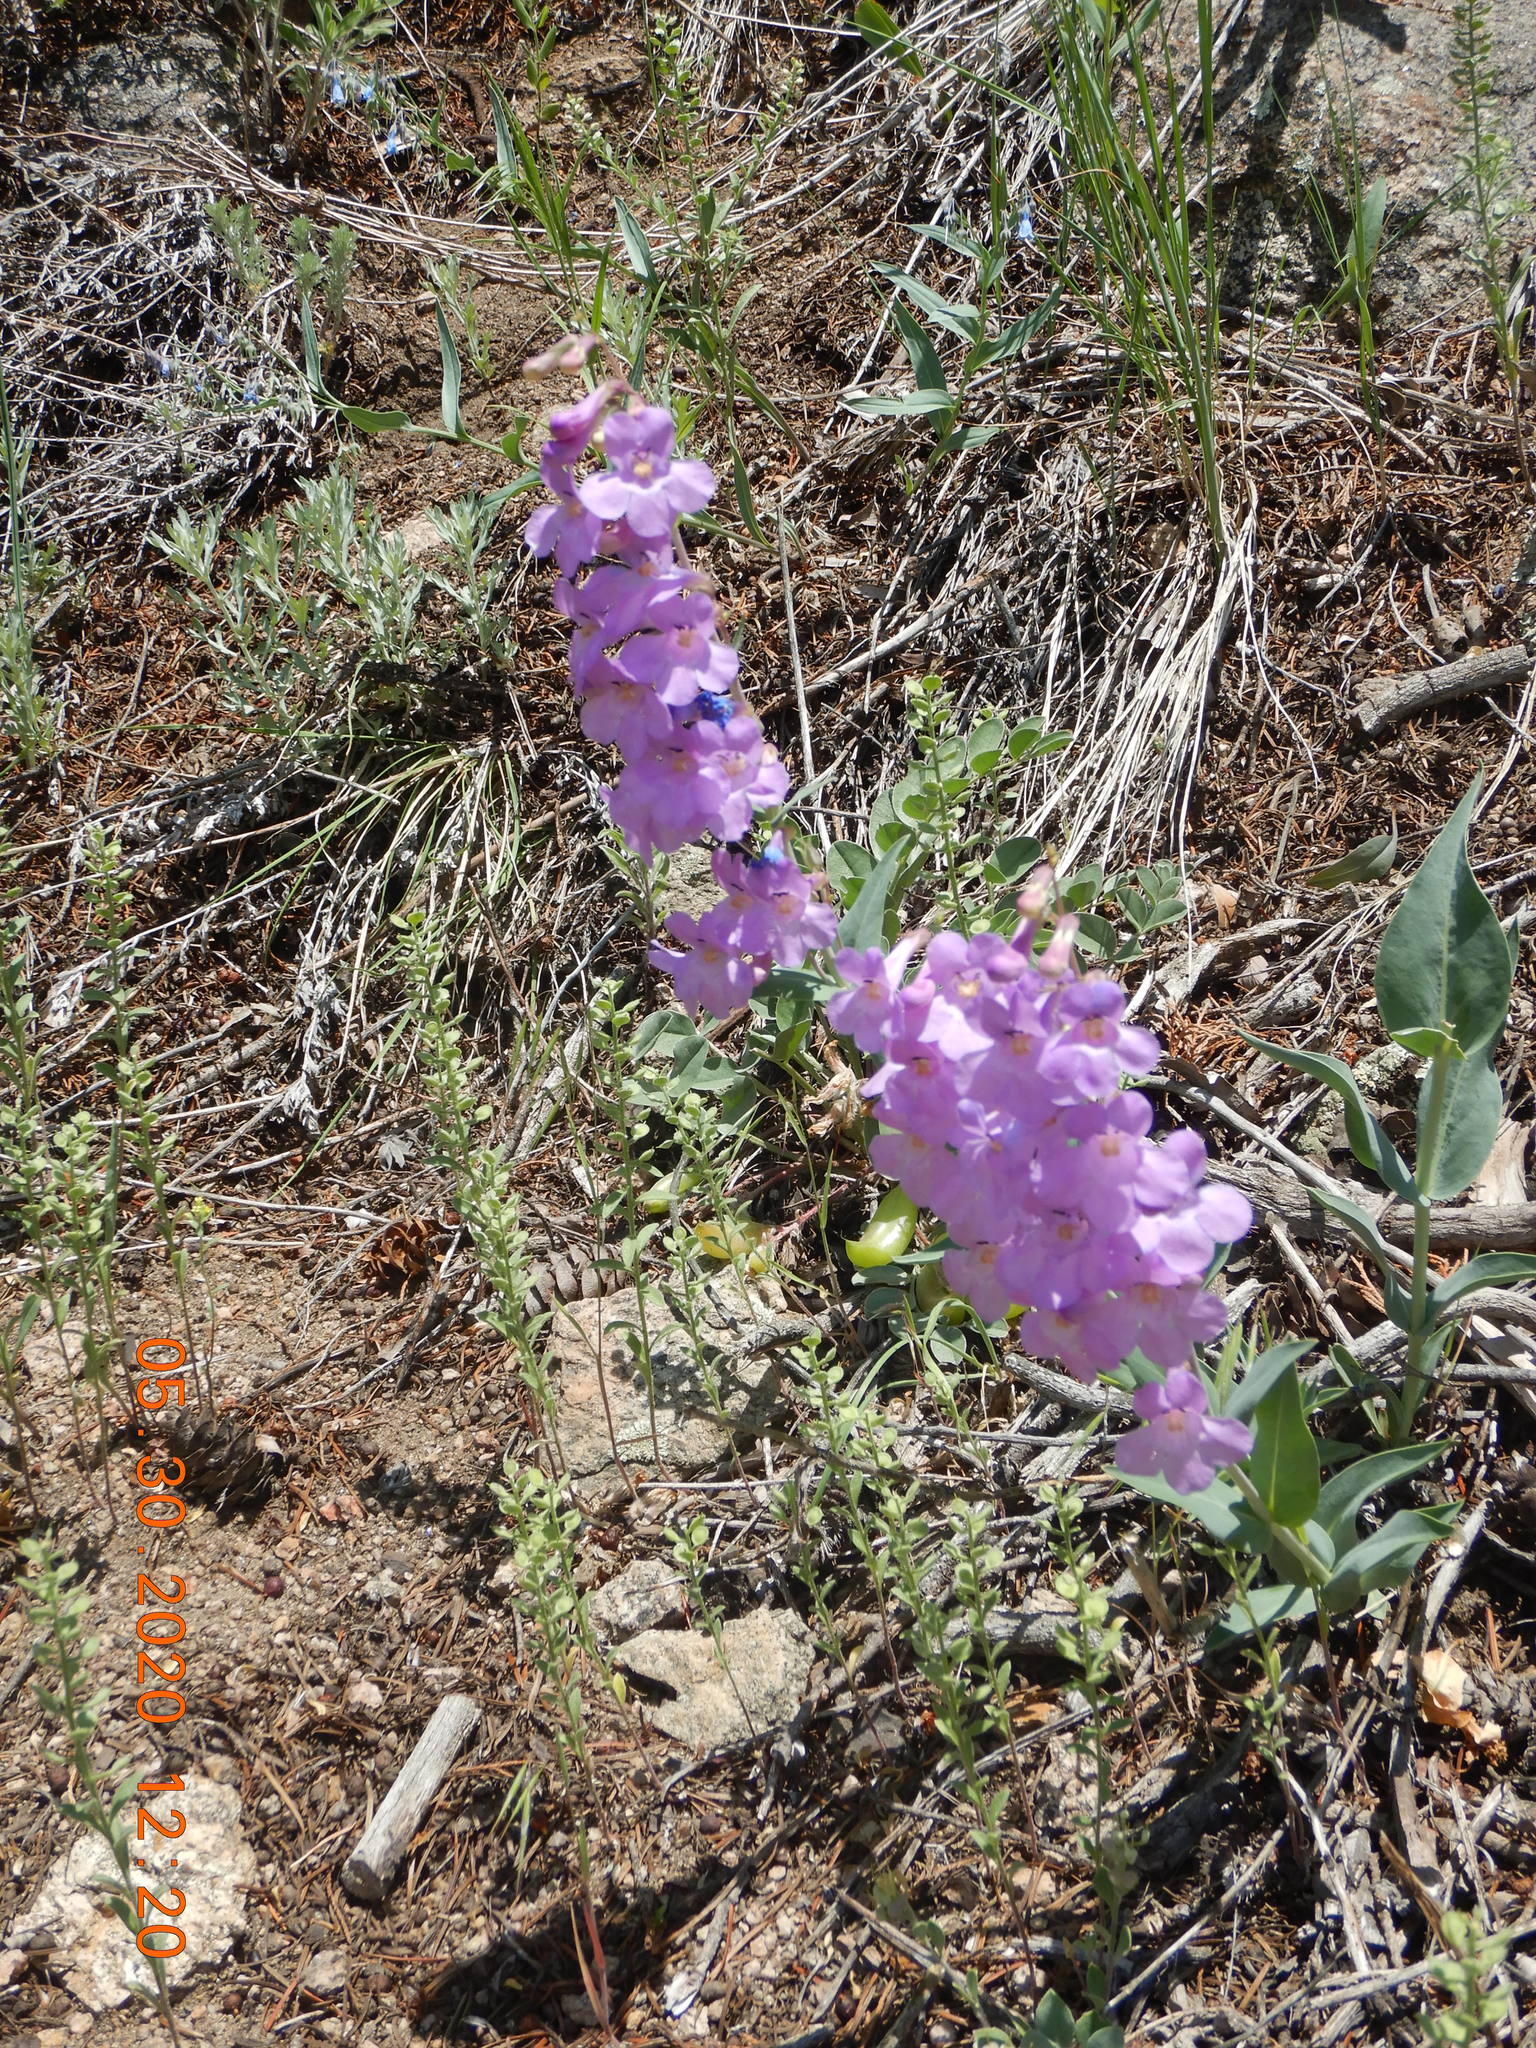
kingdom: Plantae
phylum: Tracheophyta
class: Magnoliopsida
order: Lamiales
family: Plantaginaceae
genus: Penstemon
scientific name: Penstemon secundiflorus
